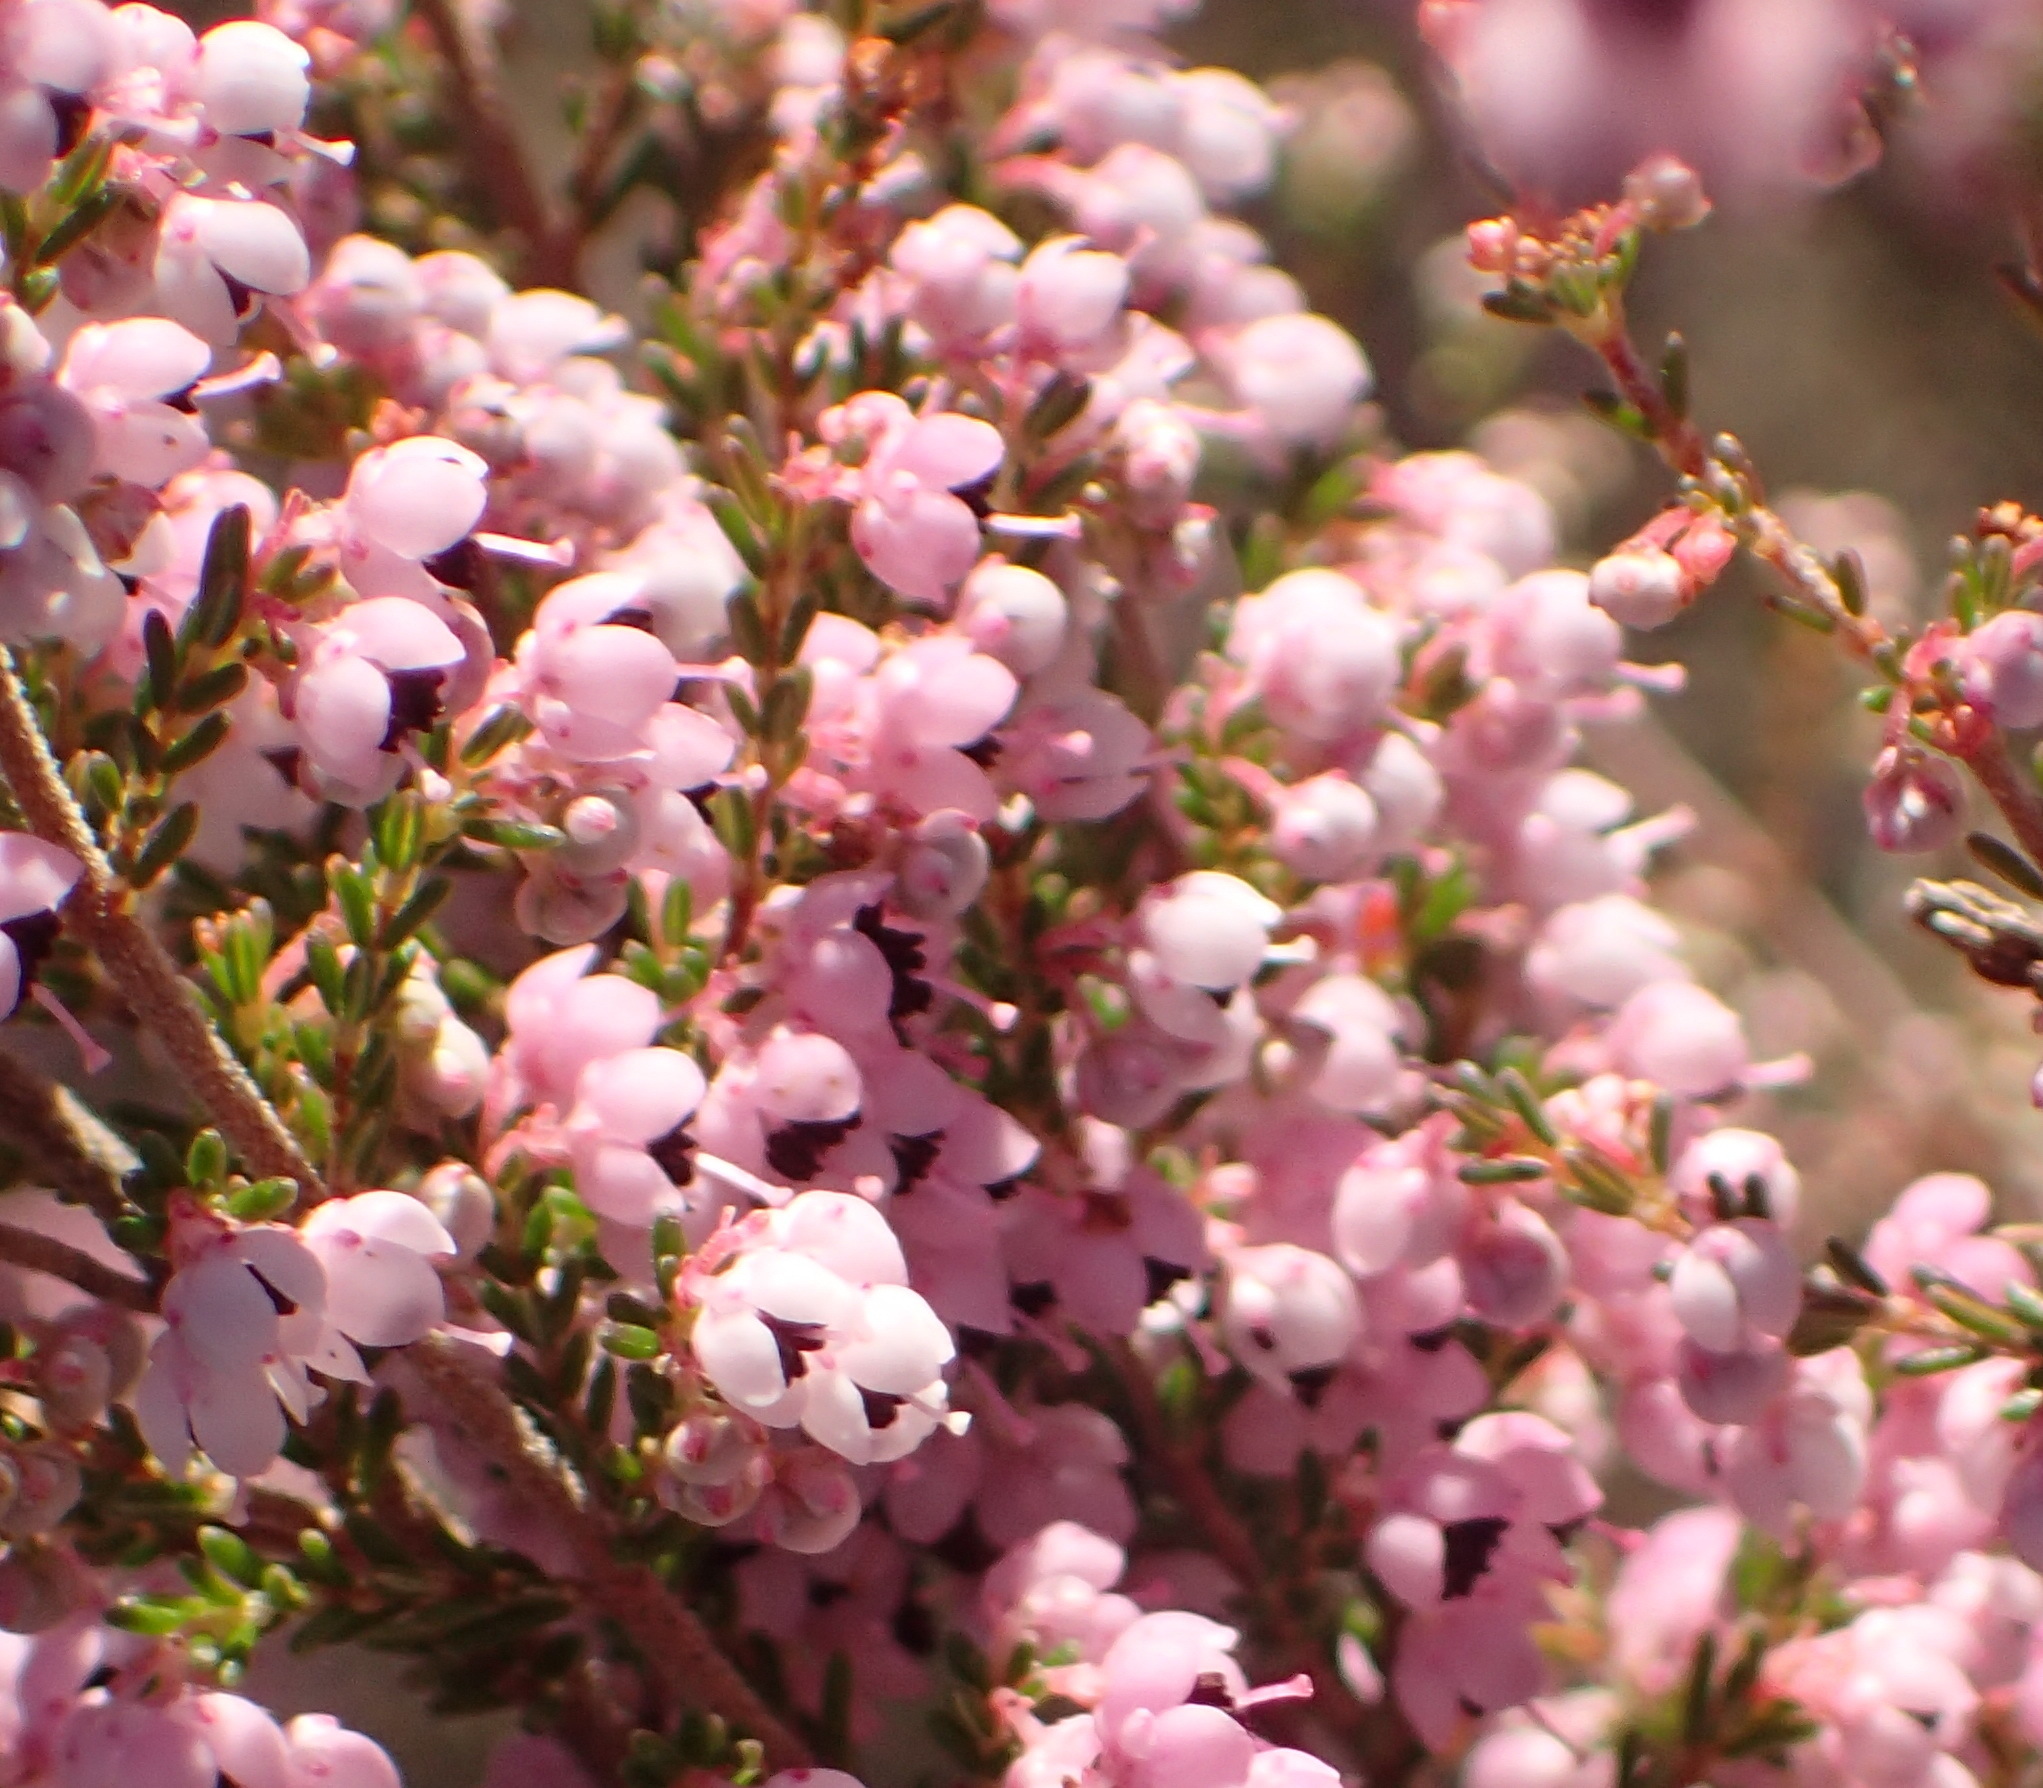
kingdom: Plantae
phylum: Tracheophyta
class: Magnoliopsida
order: Ericales
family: Ericaceae
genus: Erica
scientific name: Erica sparsa
